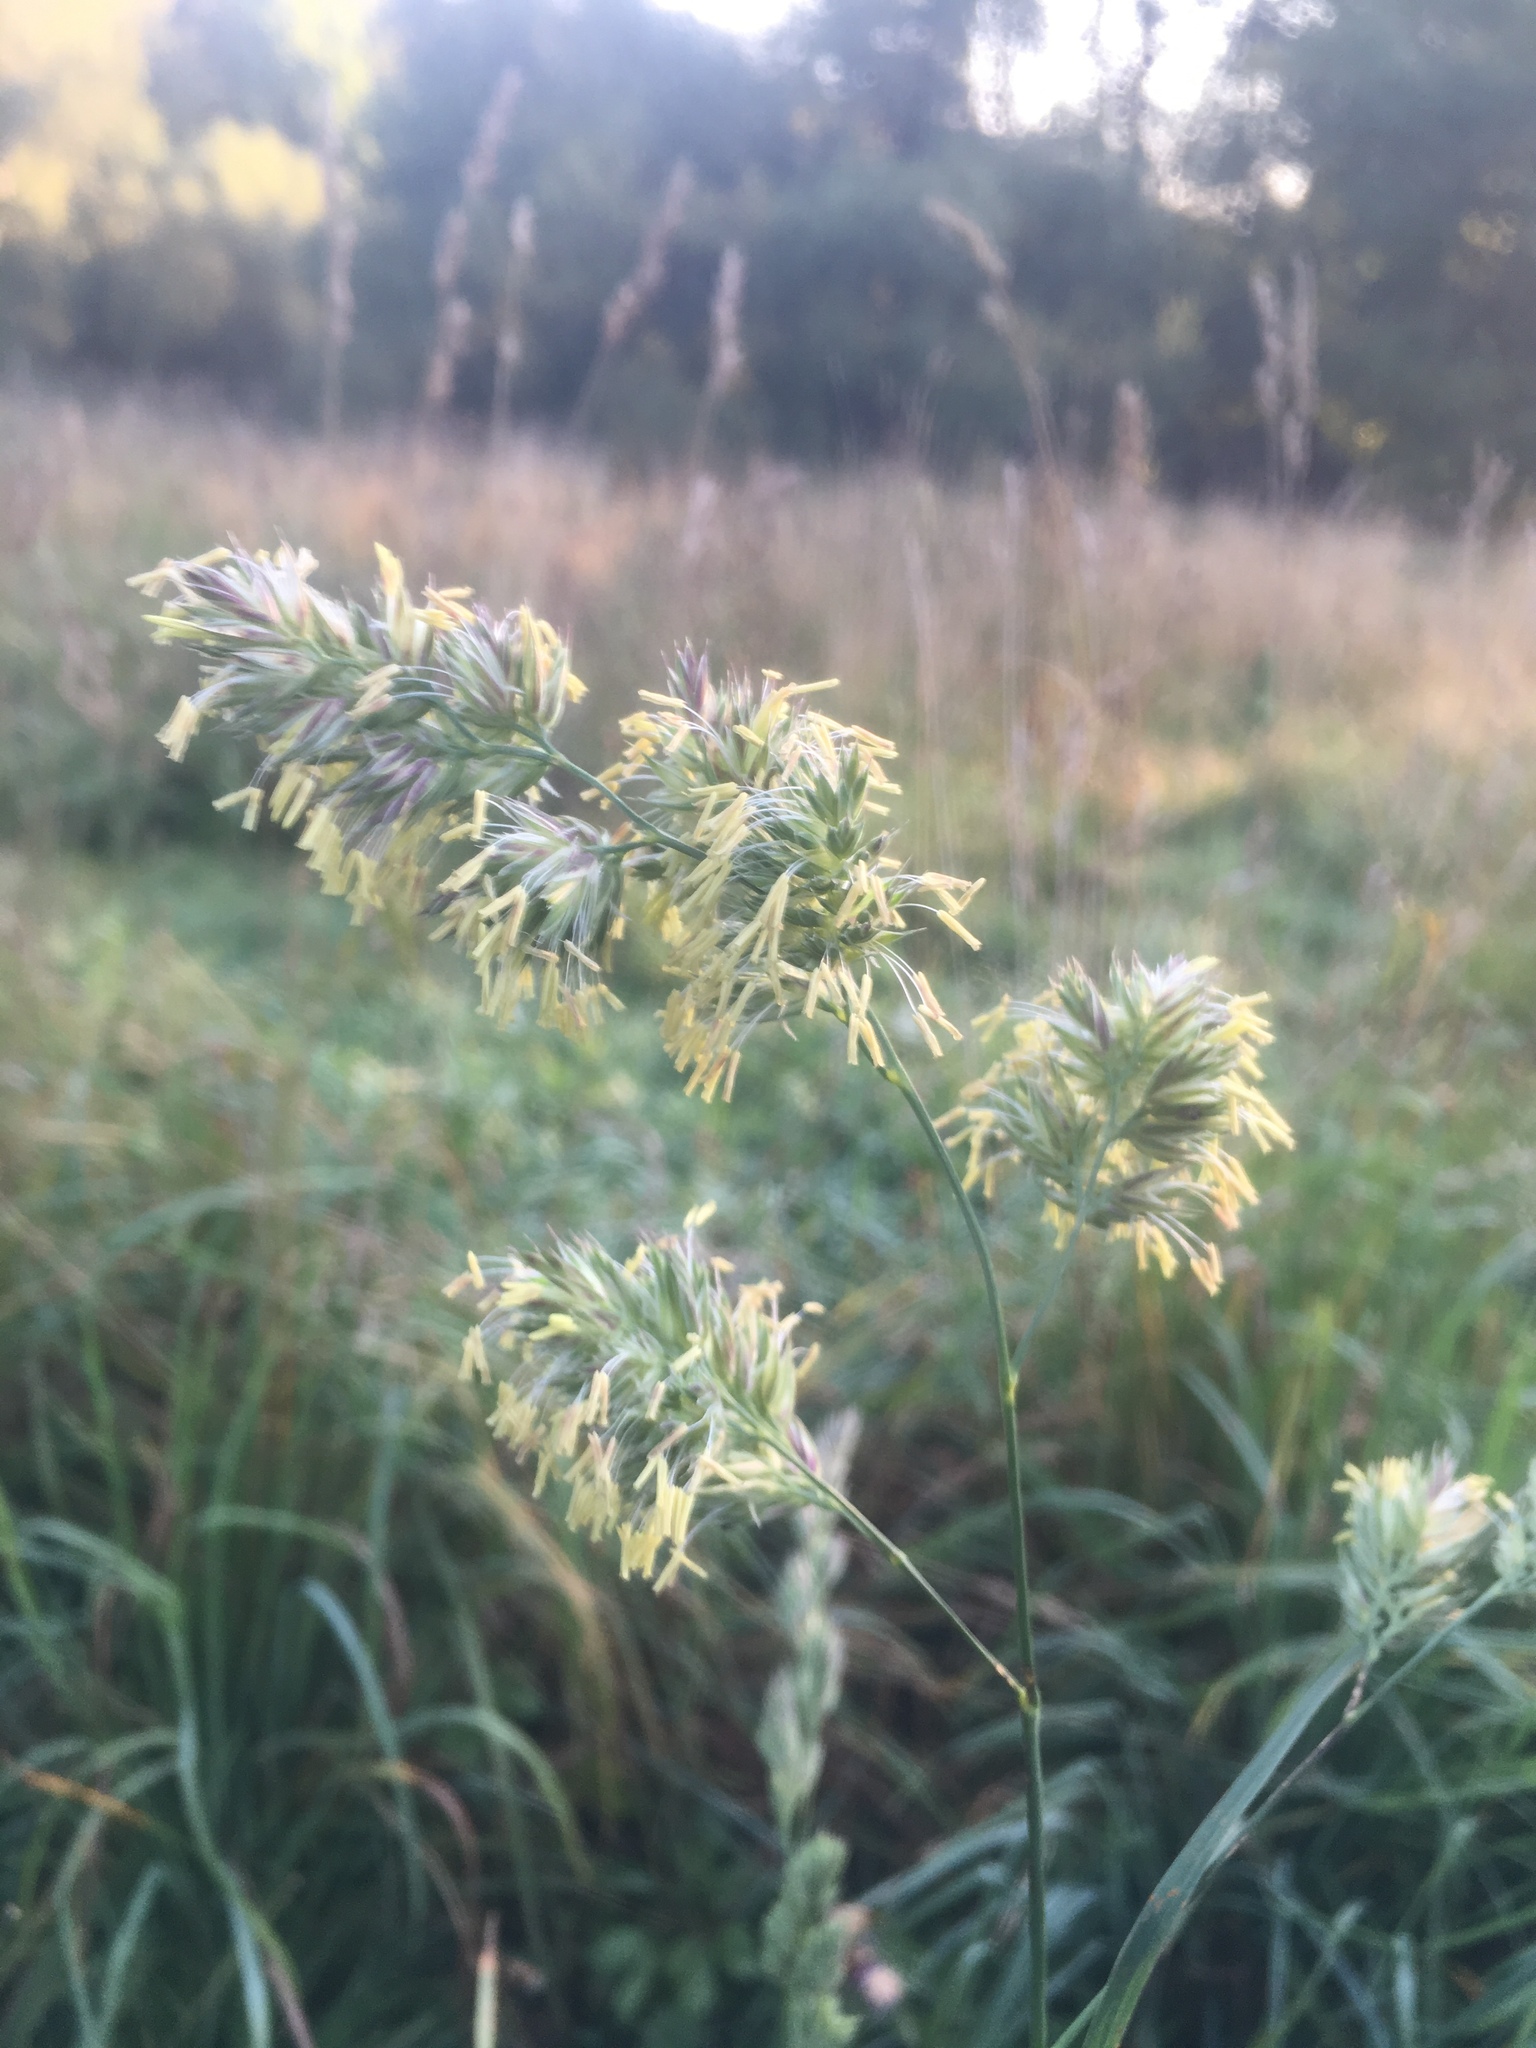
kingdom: Plantae
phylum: Tracheophyta
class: Liliopsida
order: Poales
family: Poaceae
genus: Dactylis
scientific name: Dactylis glomerata
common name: Orchardgrass
